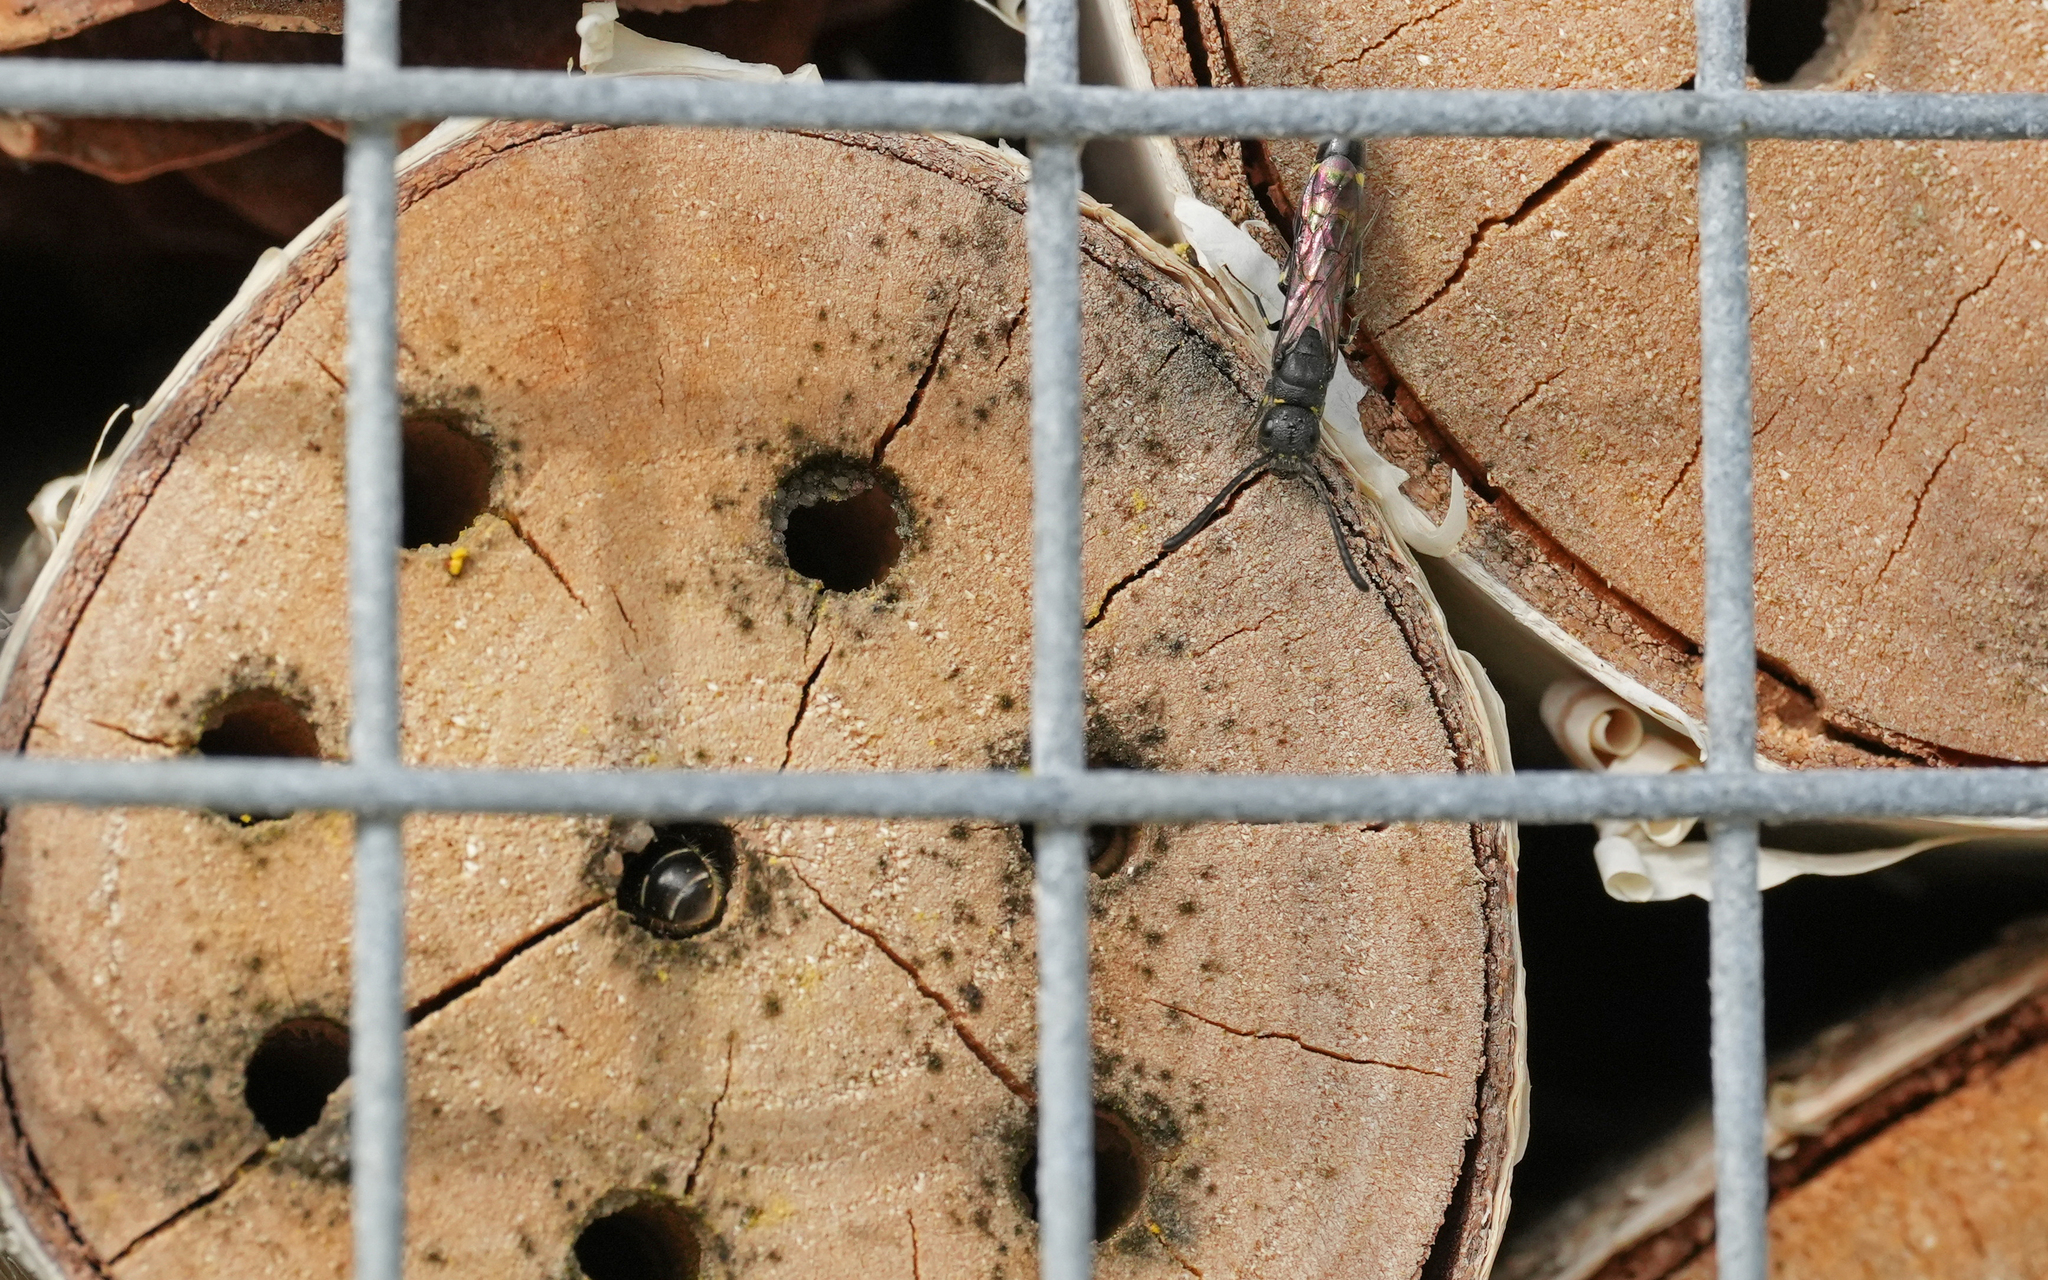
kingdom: Animalia
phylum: Arthropoda
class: Insecta
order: Hymenoptera
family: Sapygidae
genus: Monosapyga
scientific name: Monosapyga clavicornis
